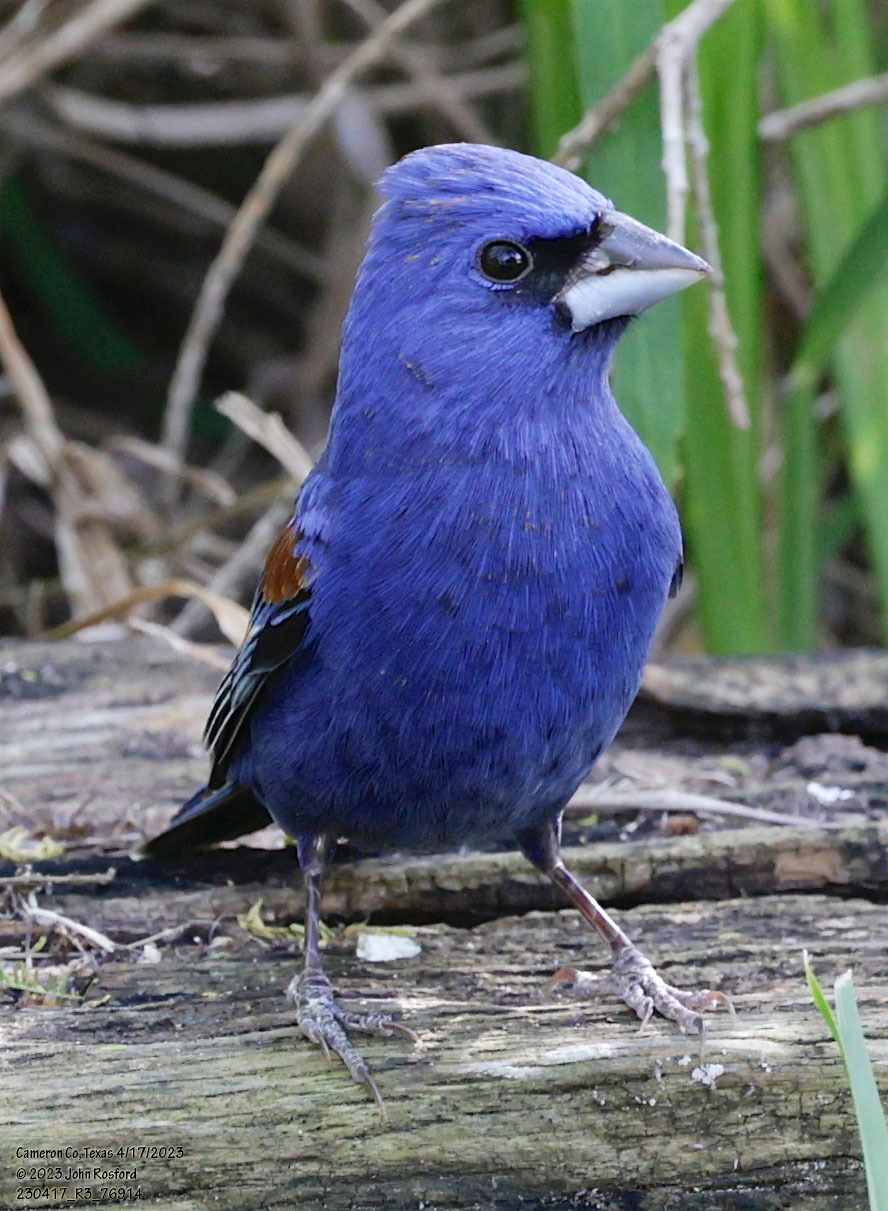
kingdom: Animalia
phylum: Chordata
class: Aves
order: Passeriformes
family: Cardinalidae
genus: Passerina
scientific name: Passerina caerulea
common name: Blue grosbeak
